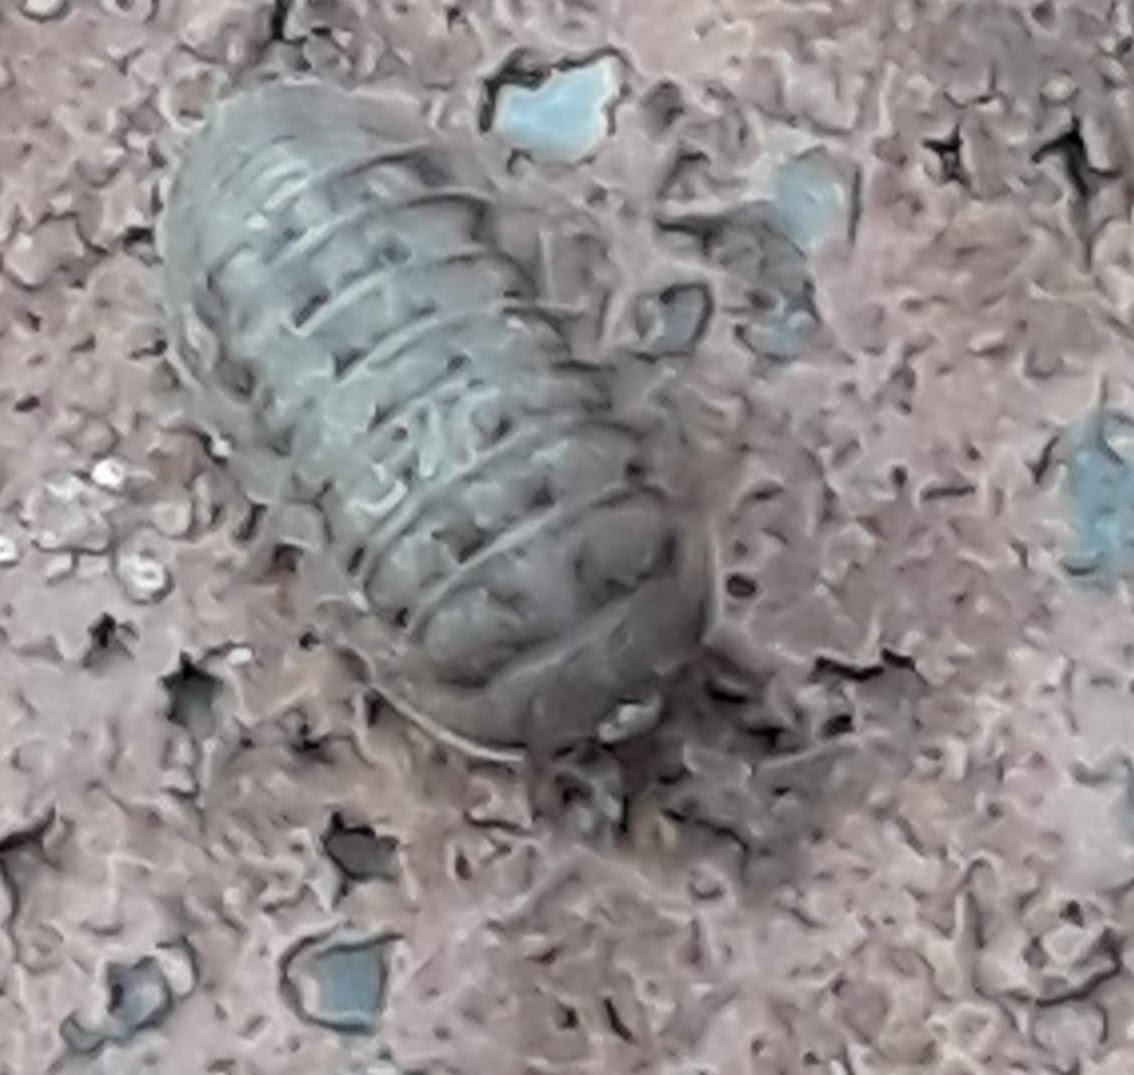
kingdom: Animalia
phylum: Arthropoda
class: Malacostraca
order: Isopoda
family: Armadillidiidae
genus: Armadillidium
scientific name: Armadillidium nasatum
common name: Isopod
